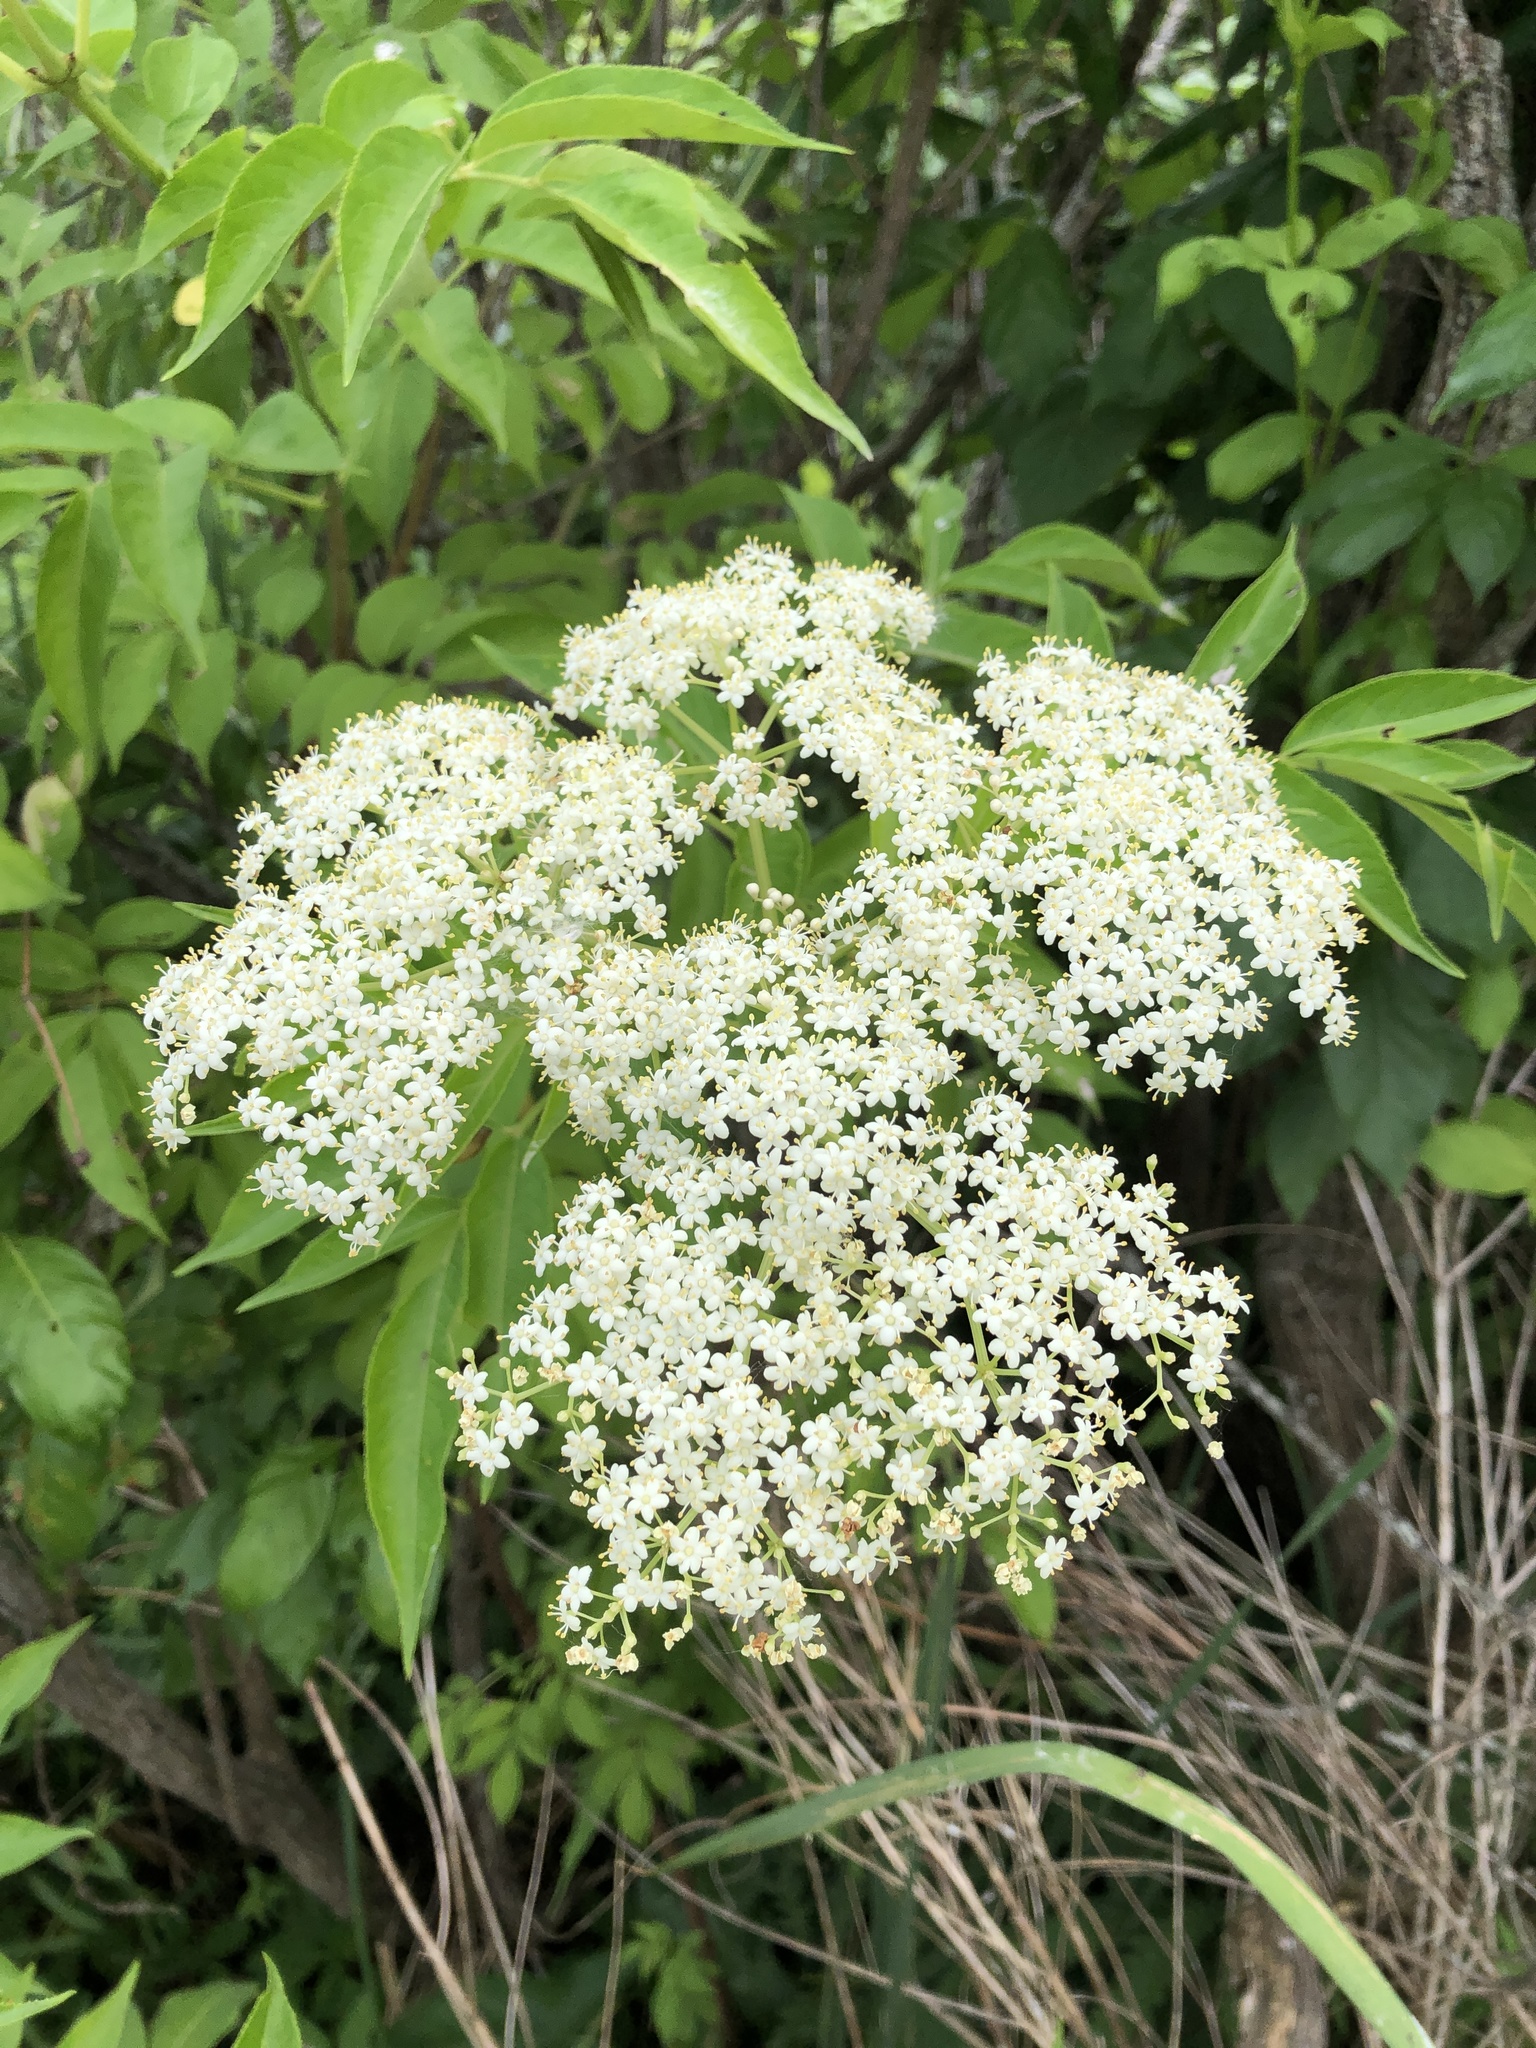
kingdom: Plantae
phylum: Tracheophyta
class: Magnoliopsida
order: Dipsacales
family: Viburnaceae
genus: Sambucus
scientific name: Sambucus canadensis
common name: American elder
